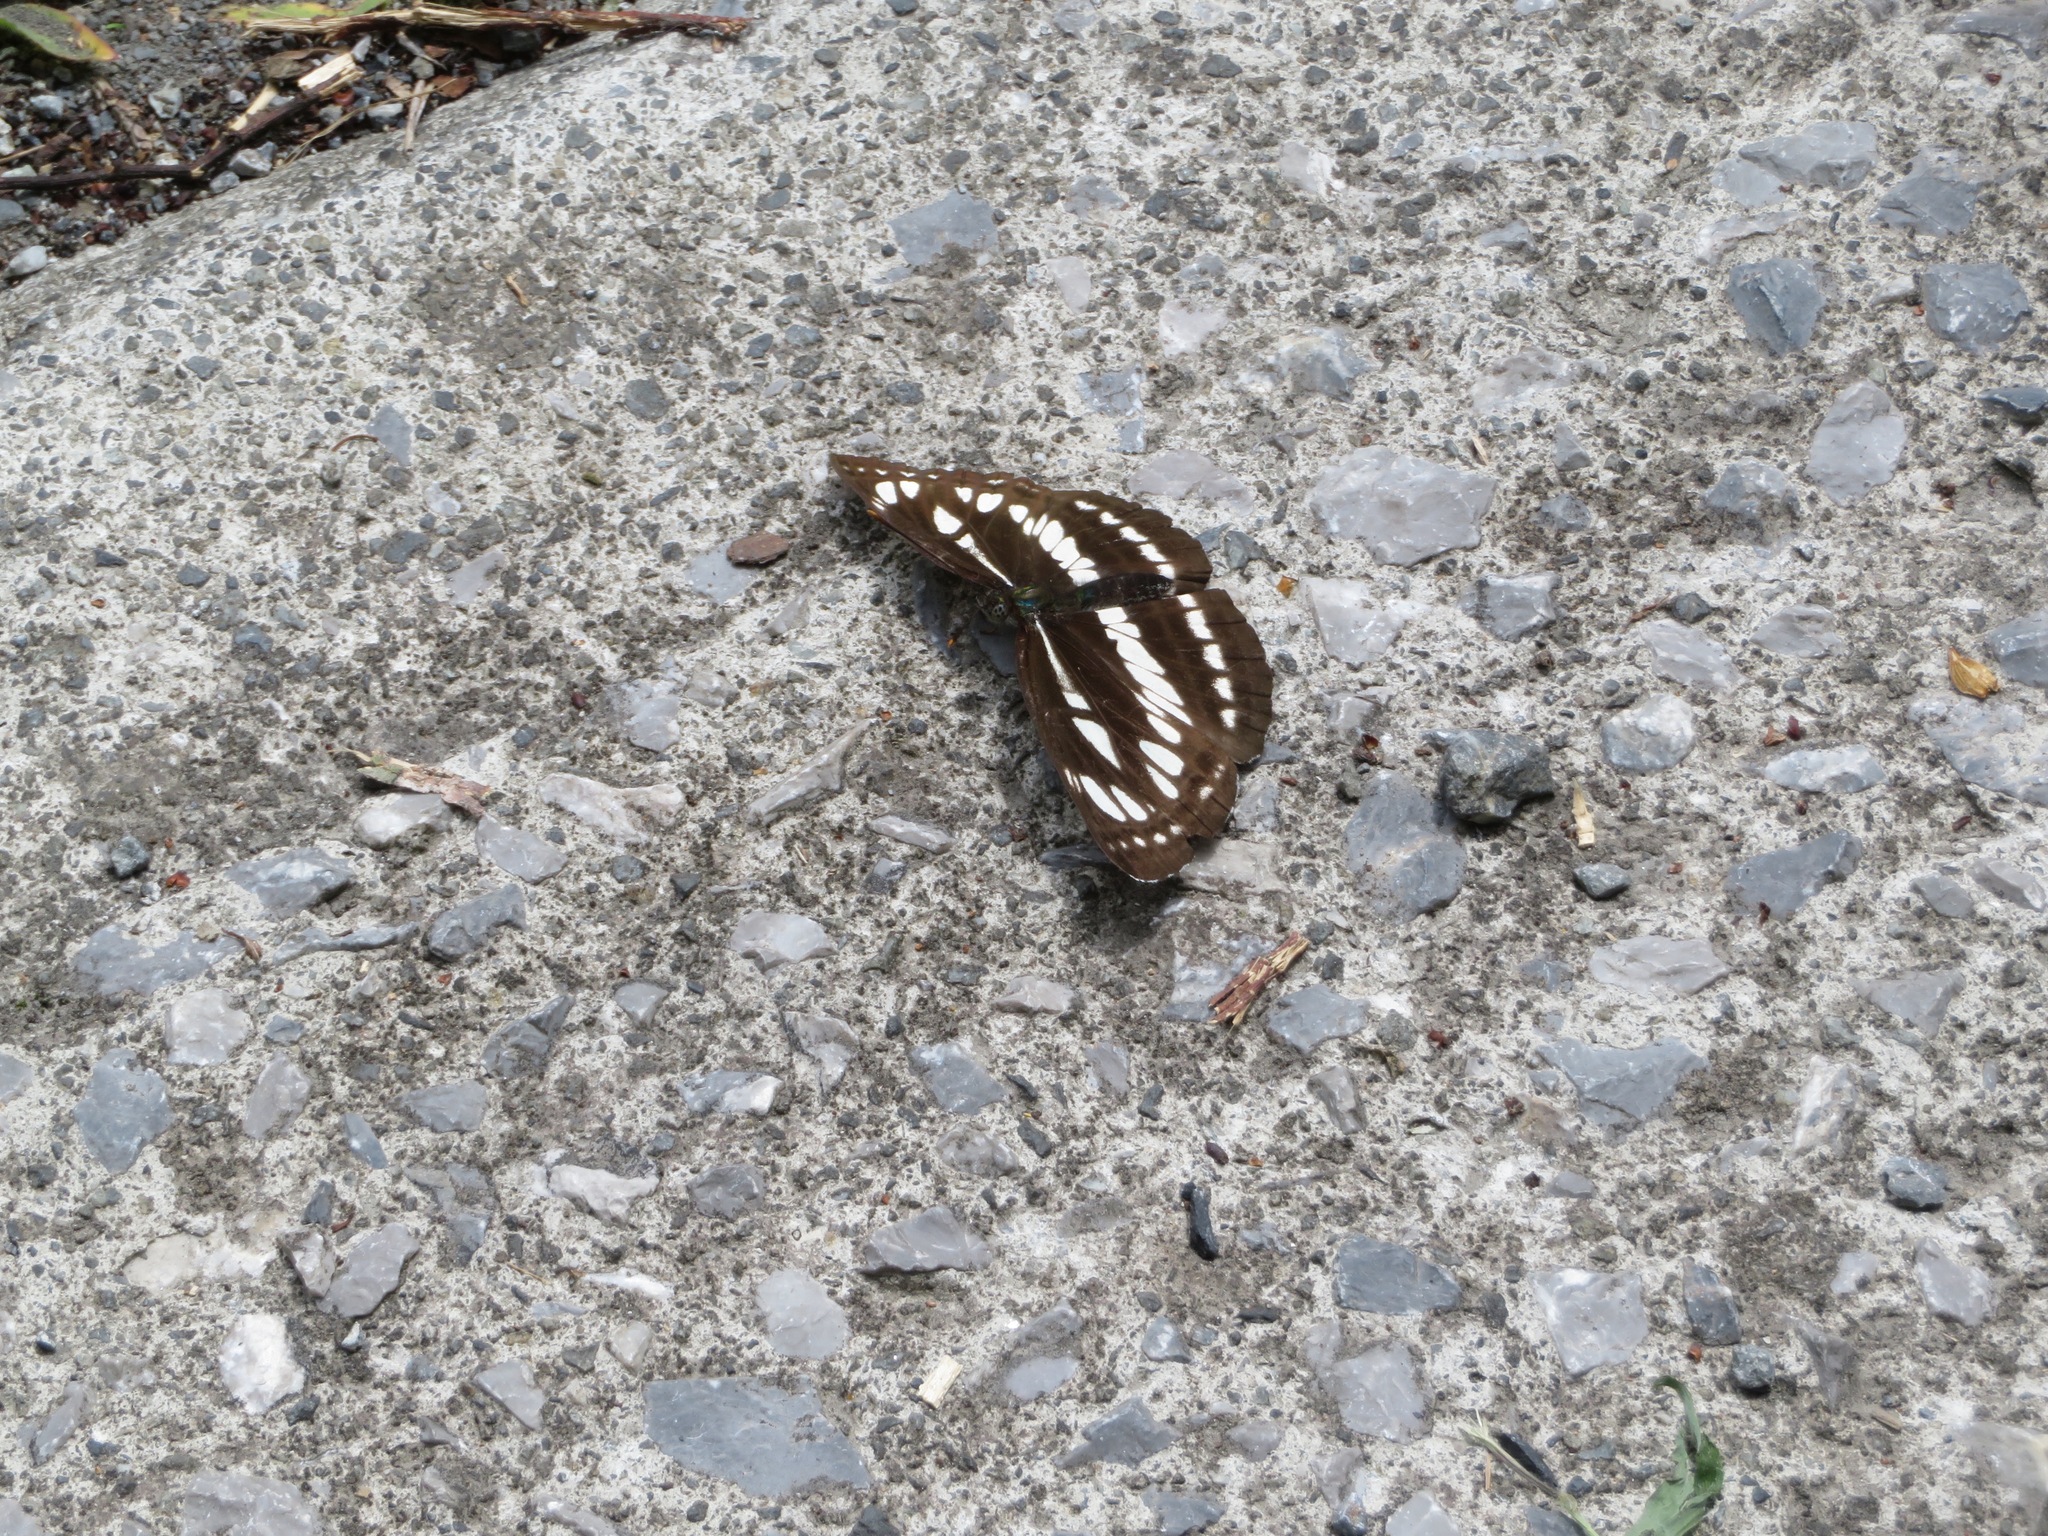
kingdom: Animalia
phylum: Arthropoda
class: Insecta
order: Lepidoptera
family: Nymphalidae
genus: Neptis
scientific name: Neptis sappho
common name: Common glider
